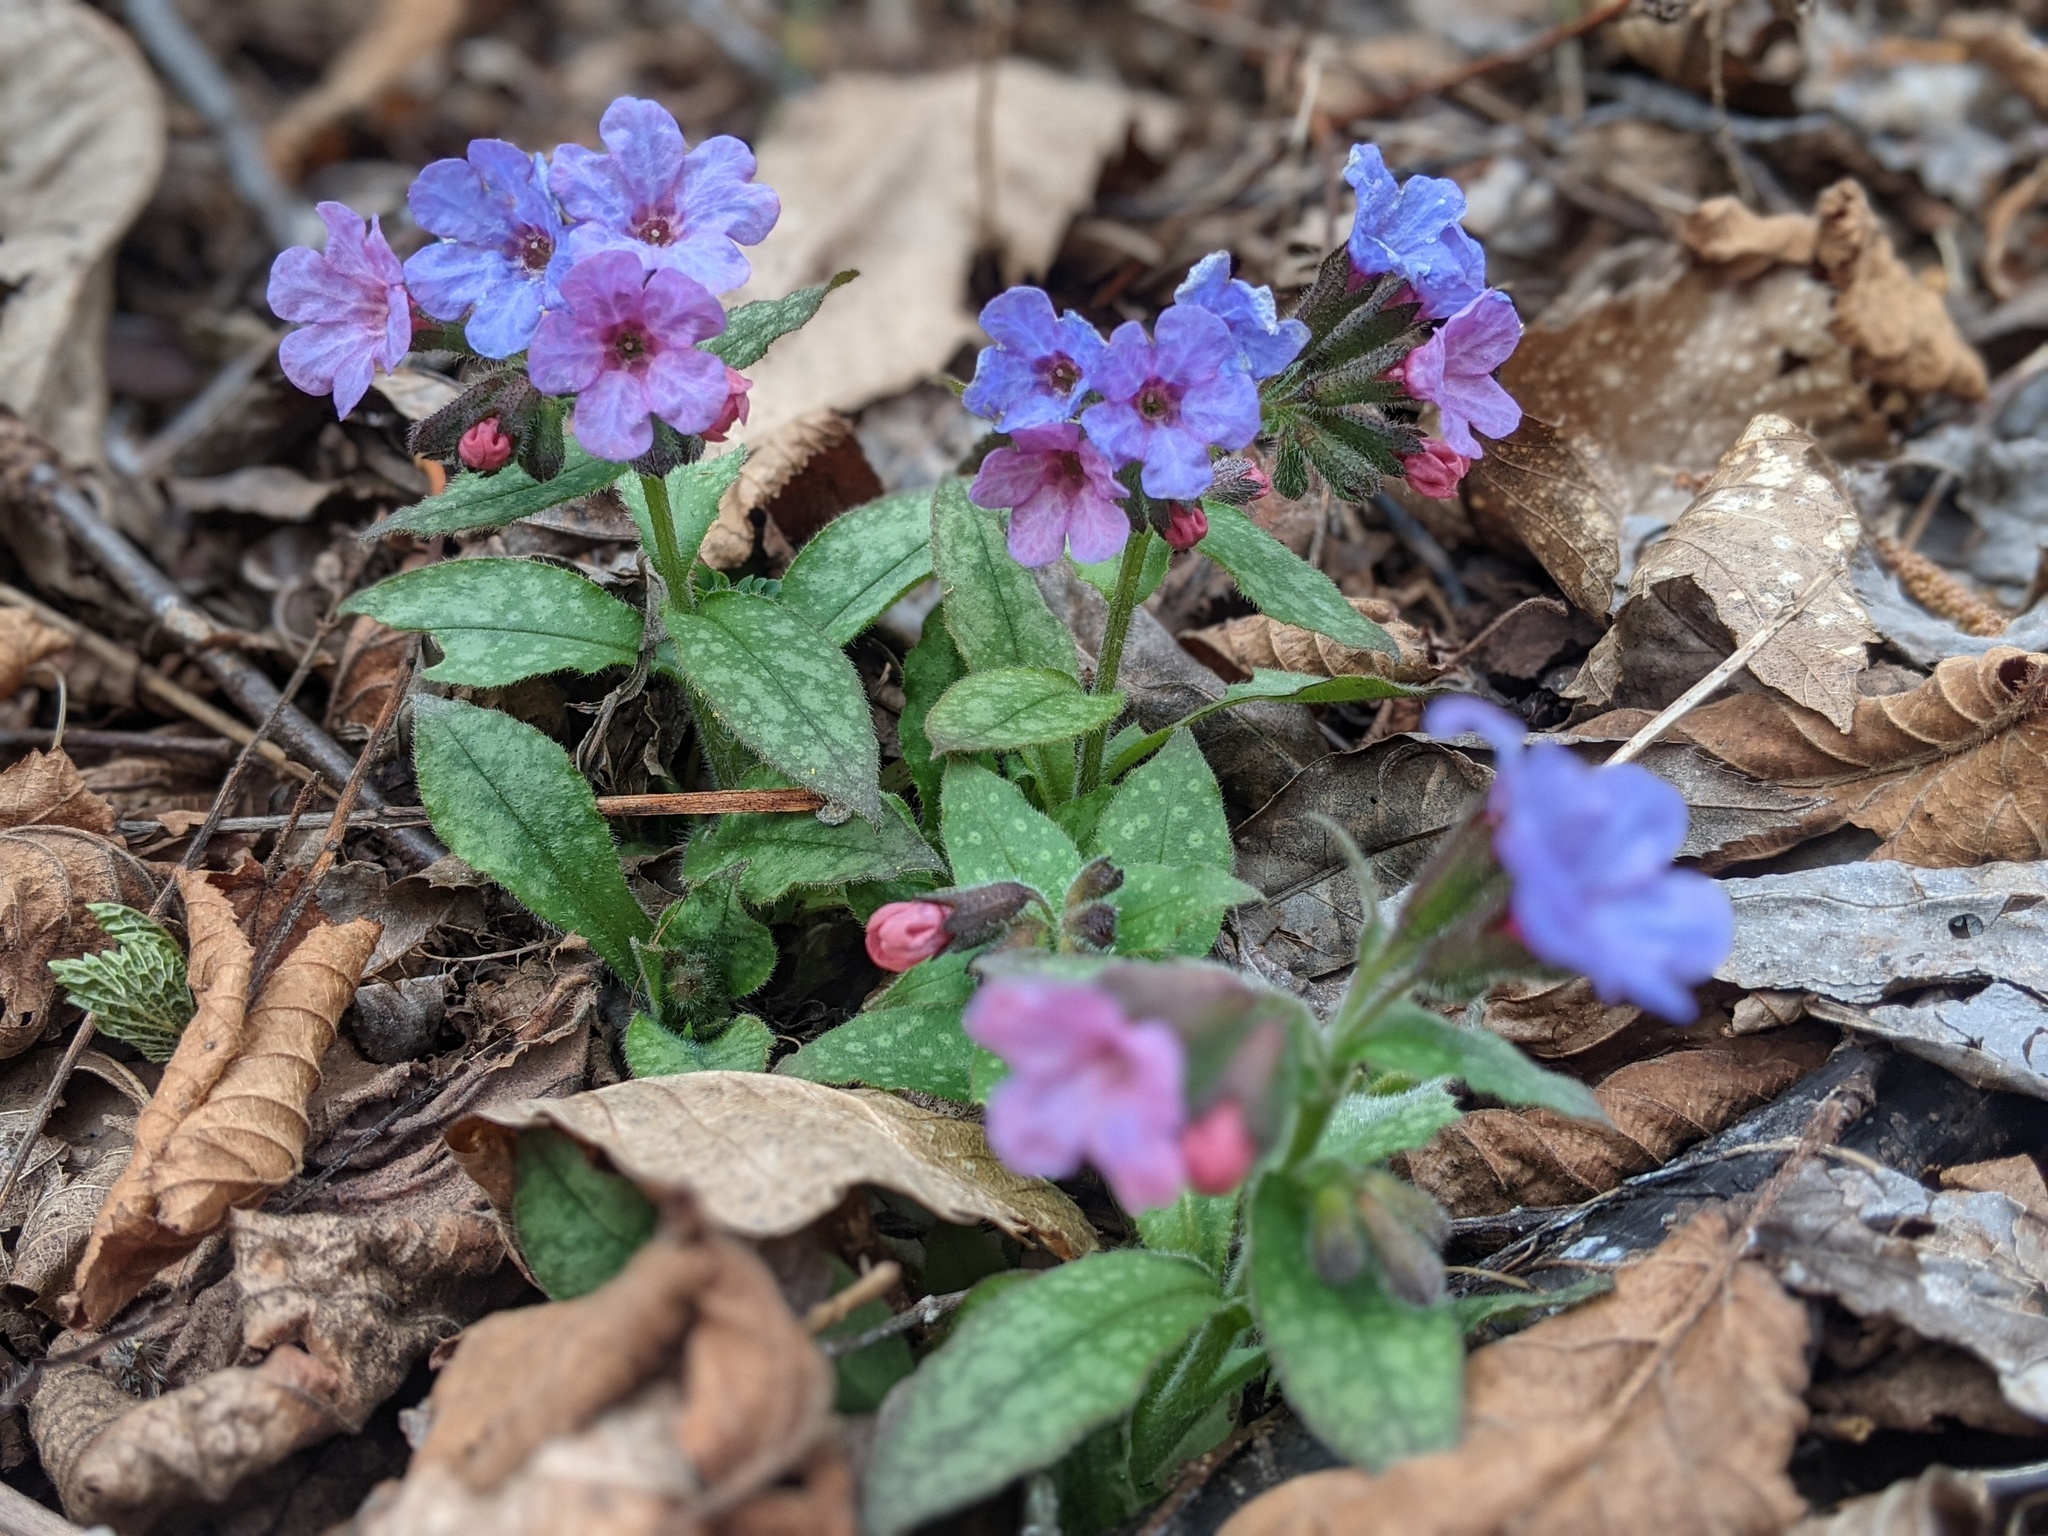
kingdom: Plantae
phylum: Tracheophyta
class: Magnoliopsida
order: Boraginales
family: Boraginaceae
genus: Pulmonaria
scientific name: Pulmonaria officinalis
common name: Lungwort
